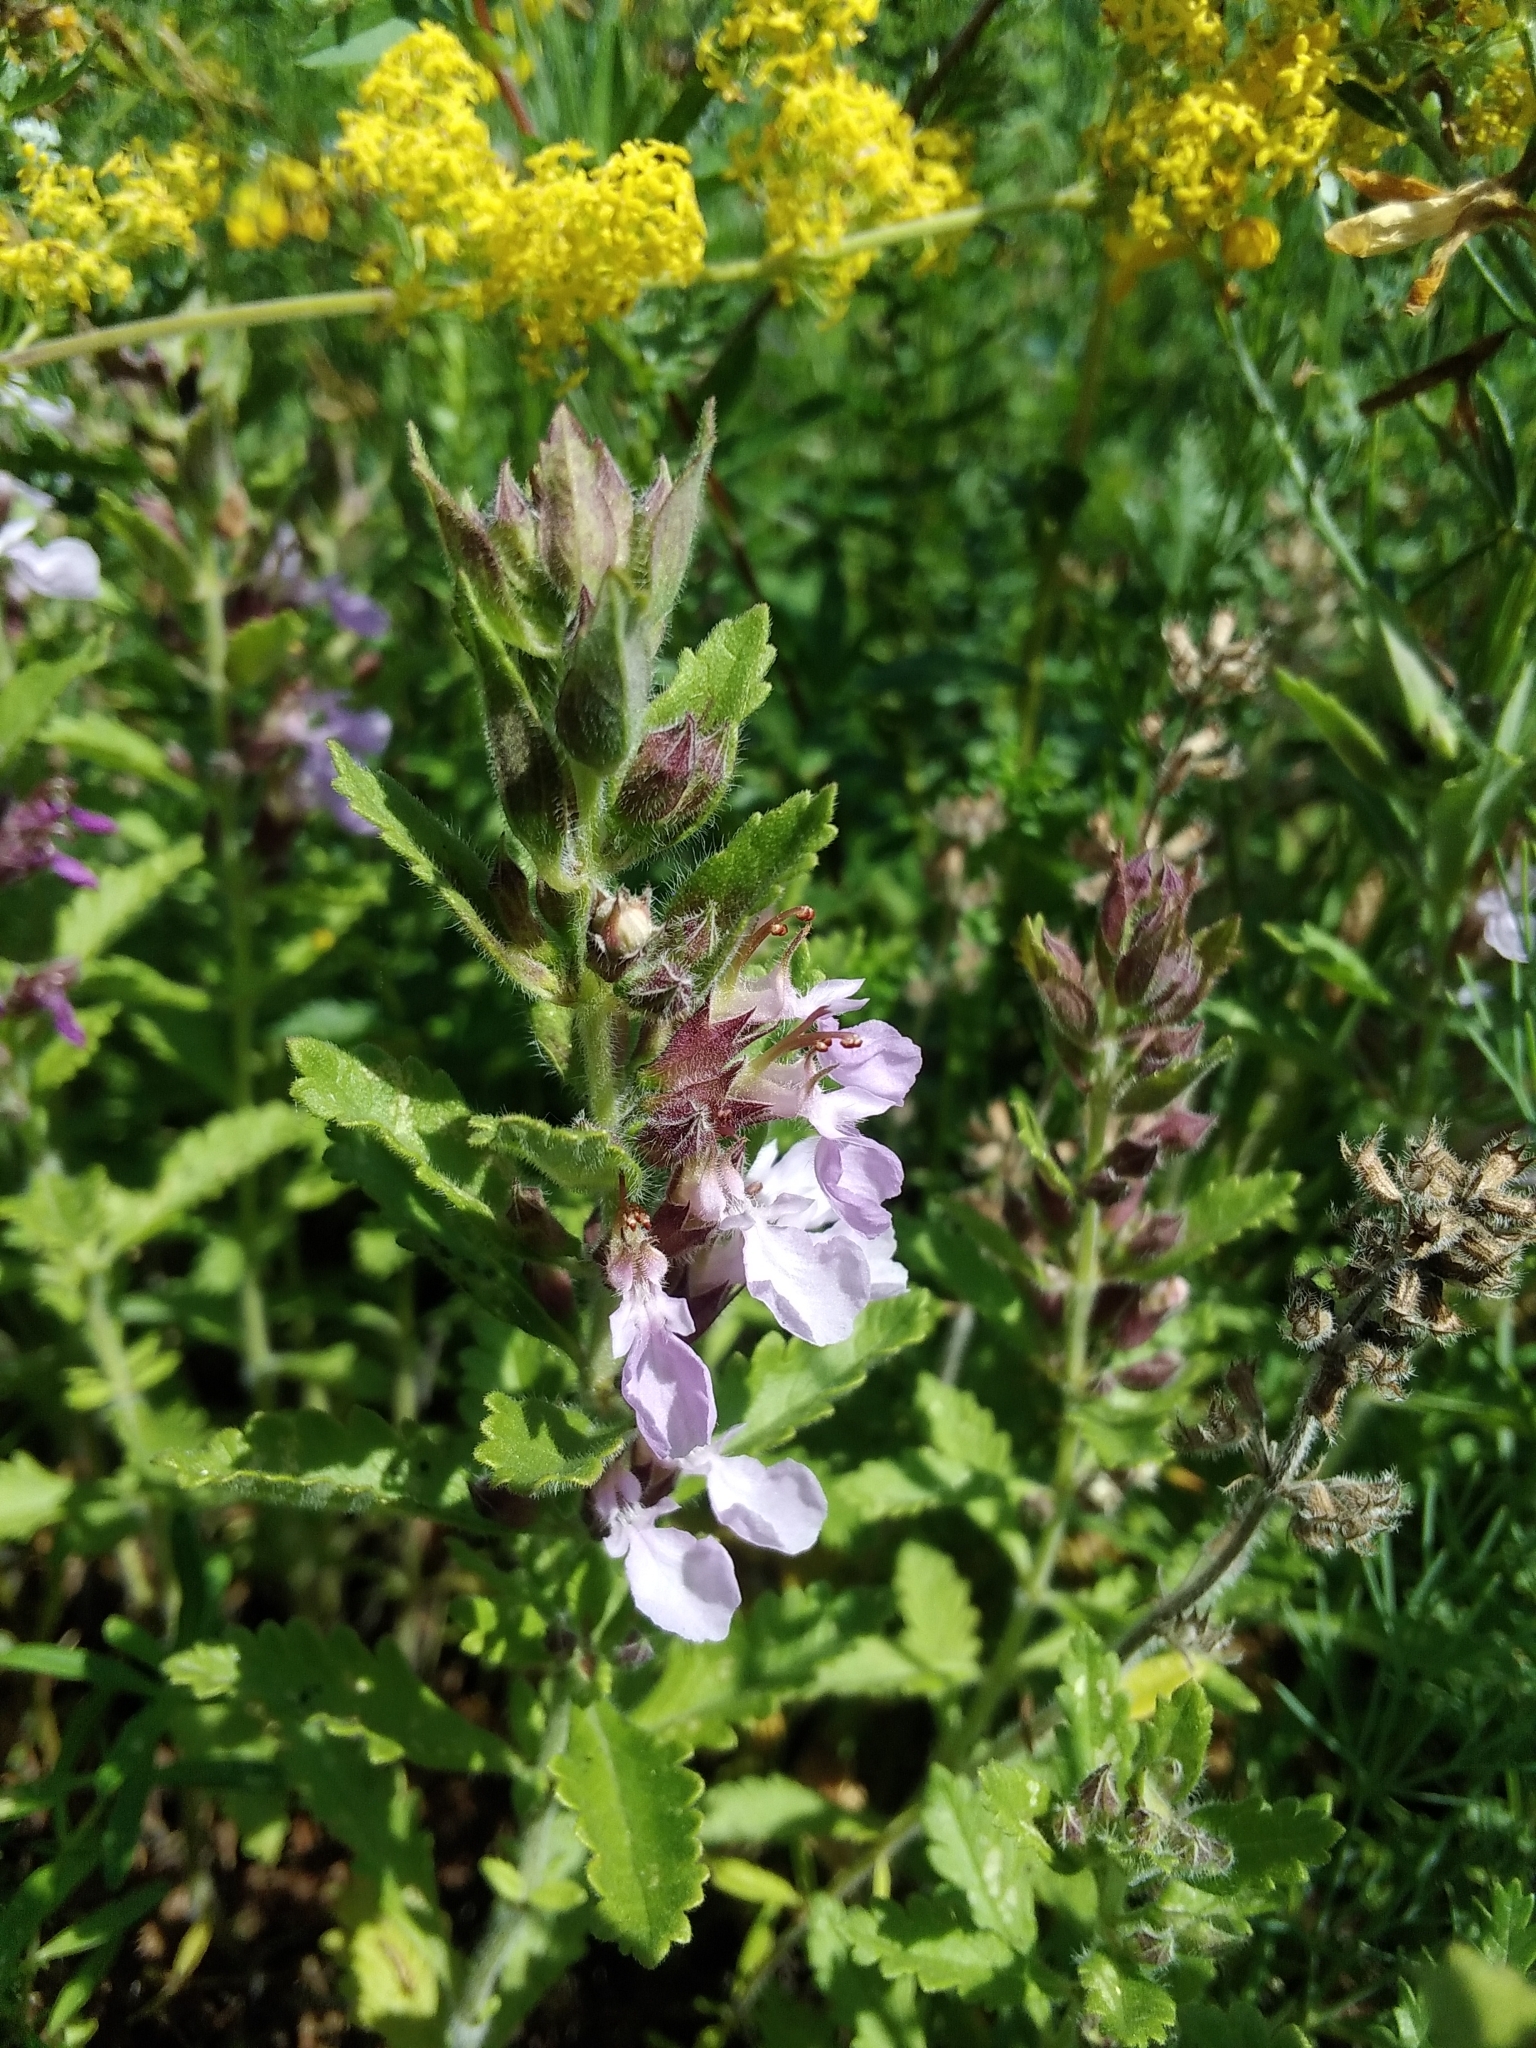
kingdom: Plantae
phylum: Tracheophyta
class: Magnoliopsida
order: Lamiales
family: Lamiaceae
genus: Teucrium
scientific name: Teucrium chamaedrys
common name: Wall germander
